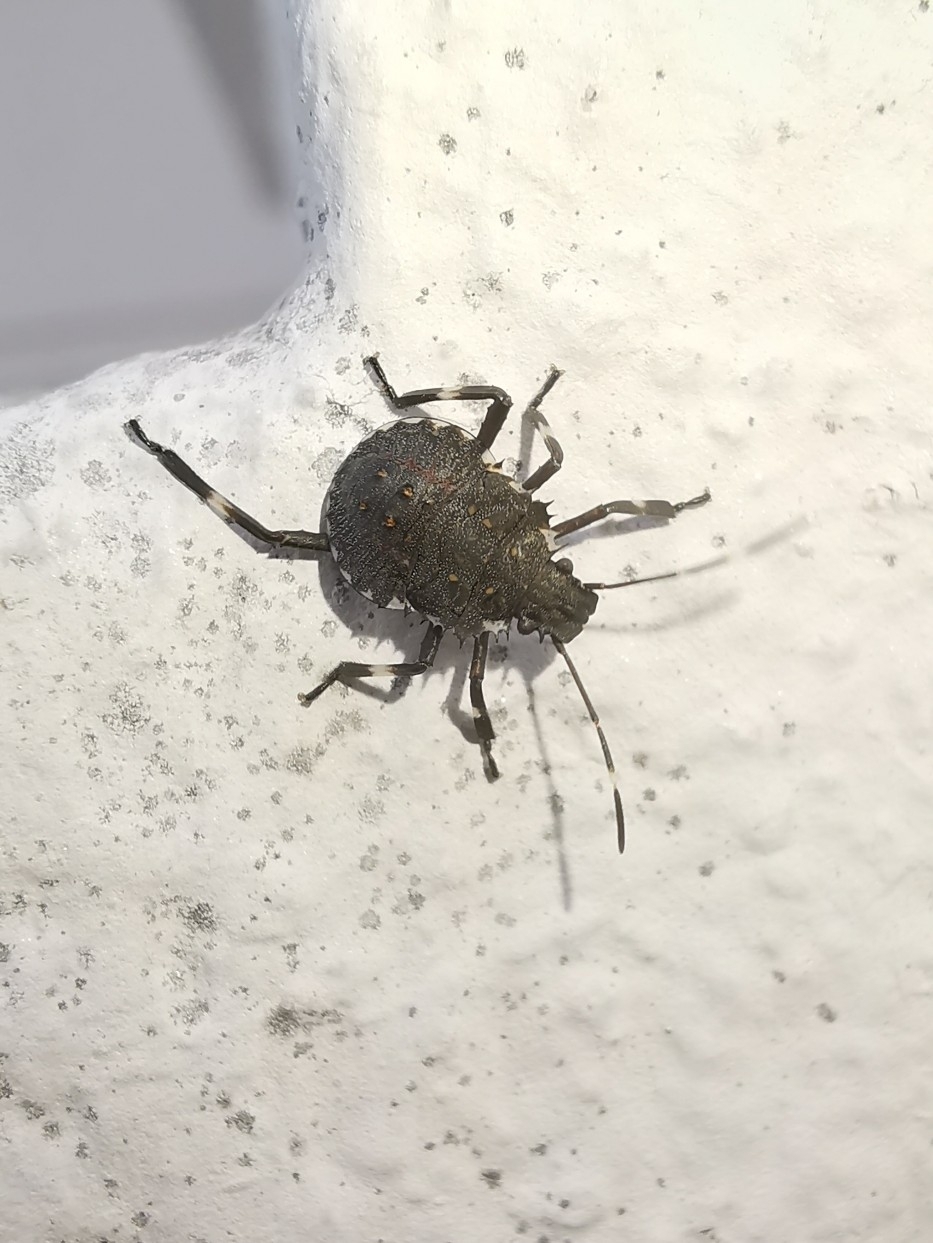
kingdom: Animalia
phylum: Arthropoda
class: Insecta
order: Hemiptera
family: Pentatomidae
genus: Halyomorpha
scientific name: Halyomorpha halys
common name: Brown marmorated stink bug
